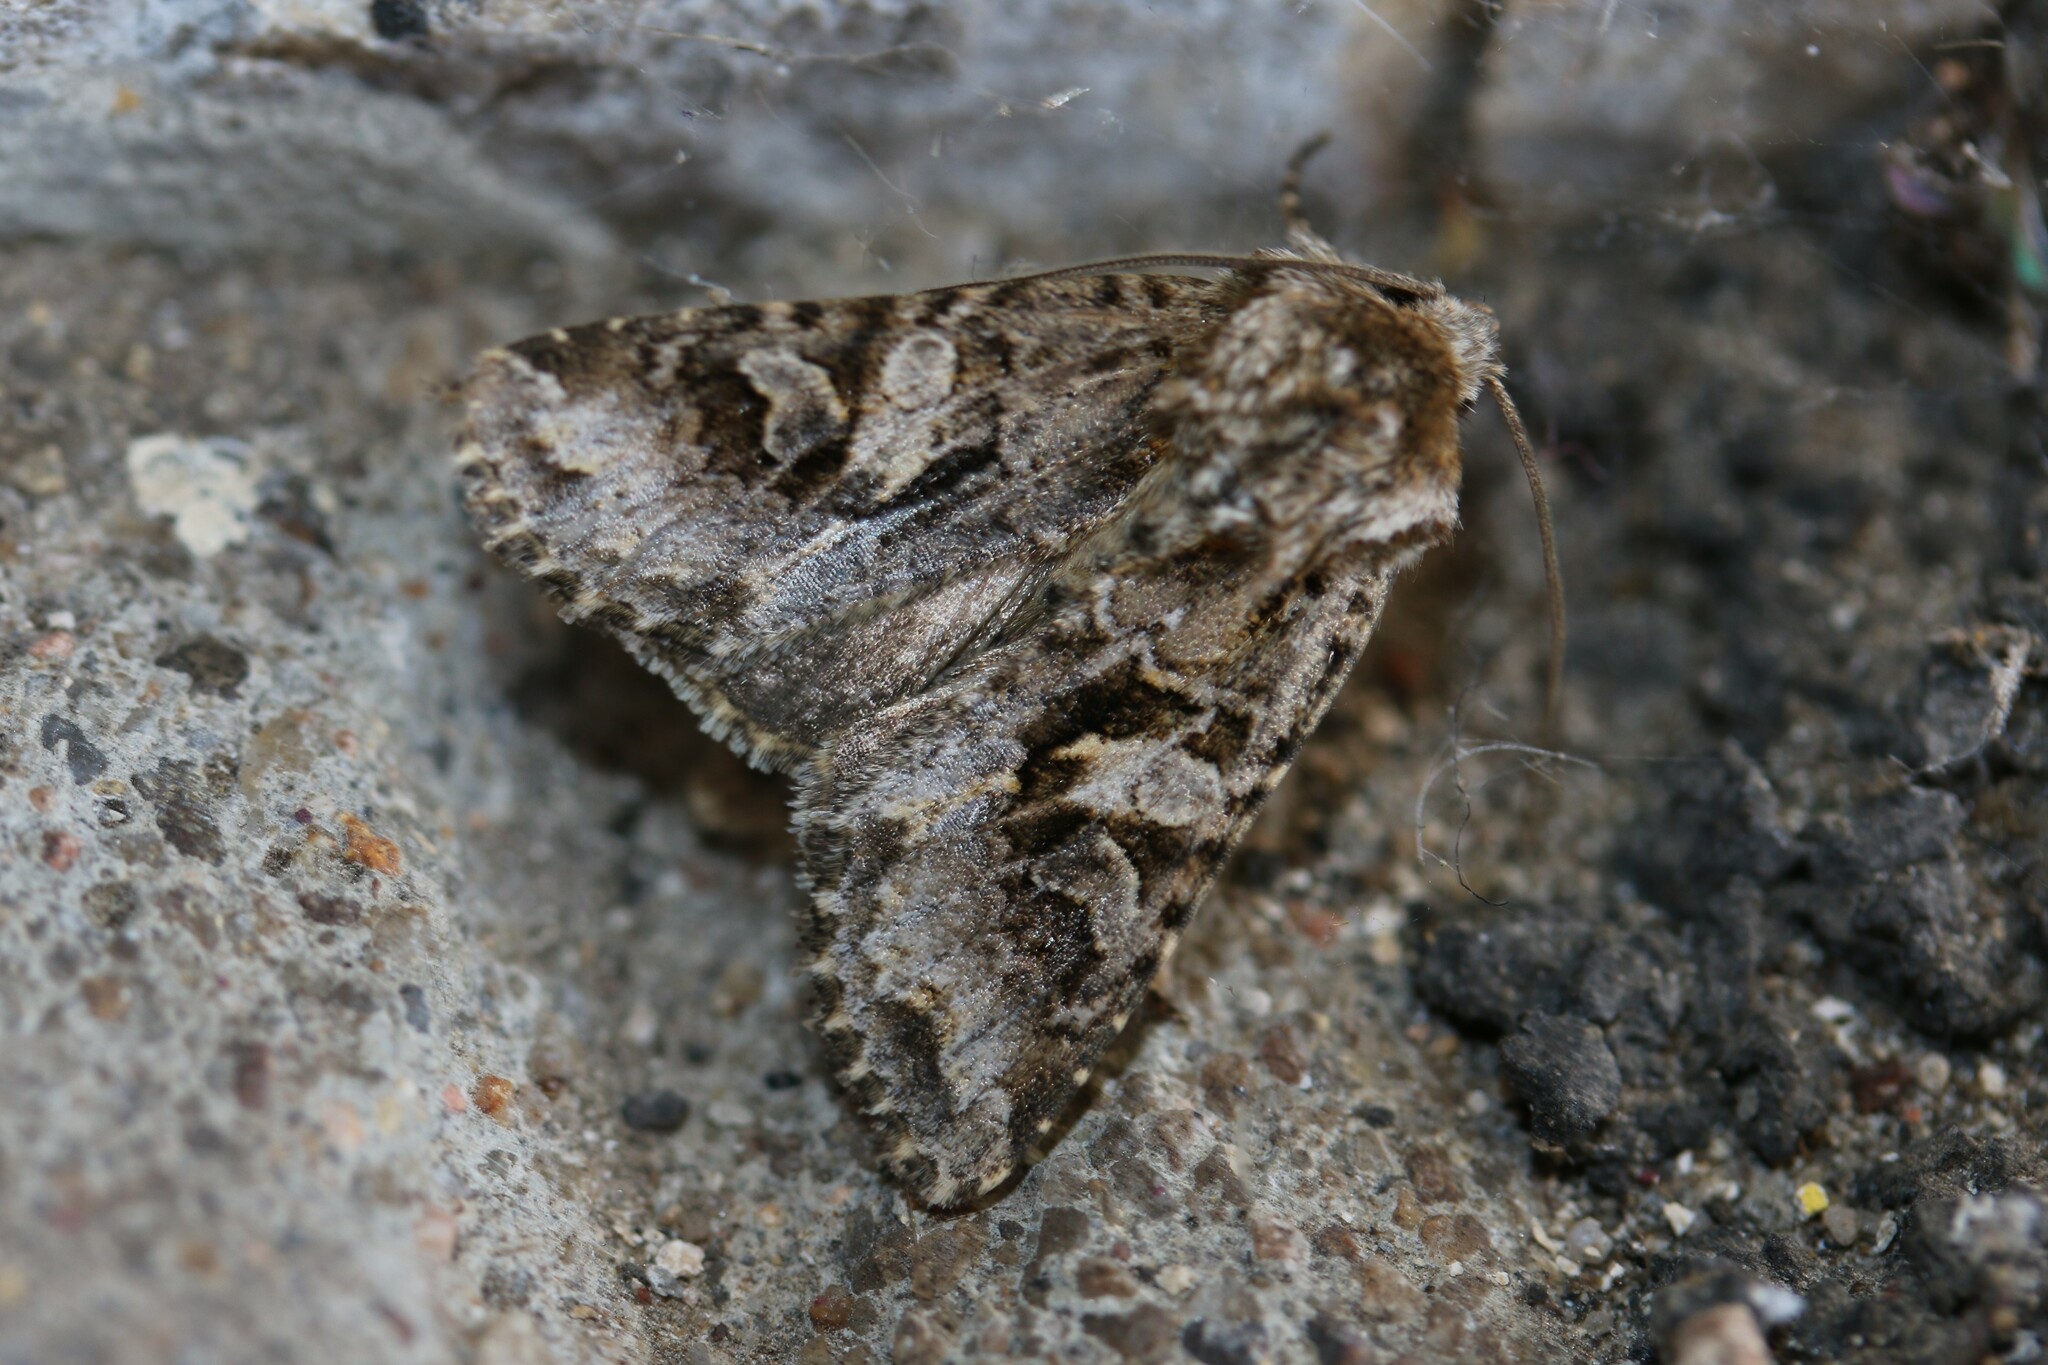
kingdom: Animalia
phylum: Arthropoda
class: Insecta
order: Lepidoptera
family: Noctuidae
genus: Hada
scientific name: Hada plebeja
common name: Shears
